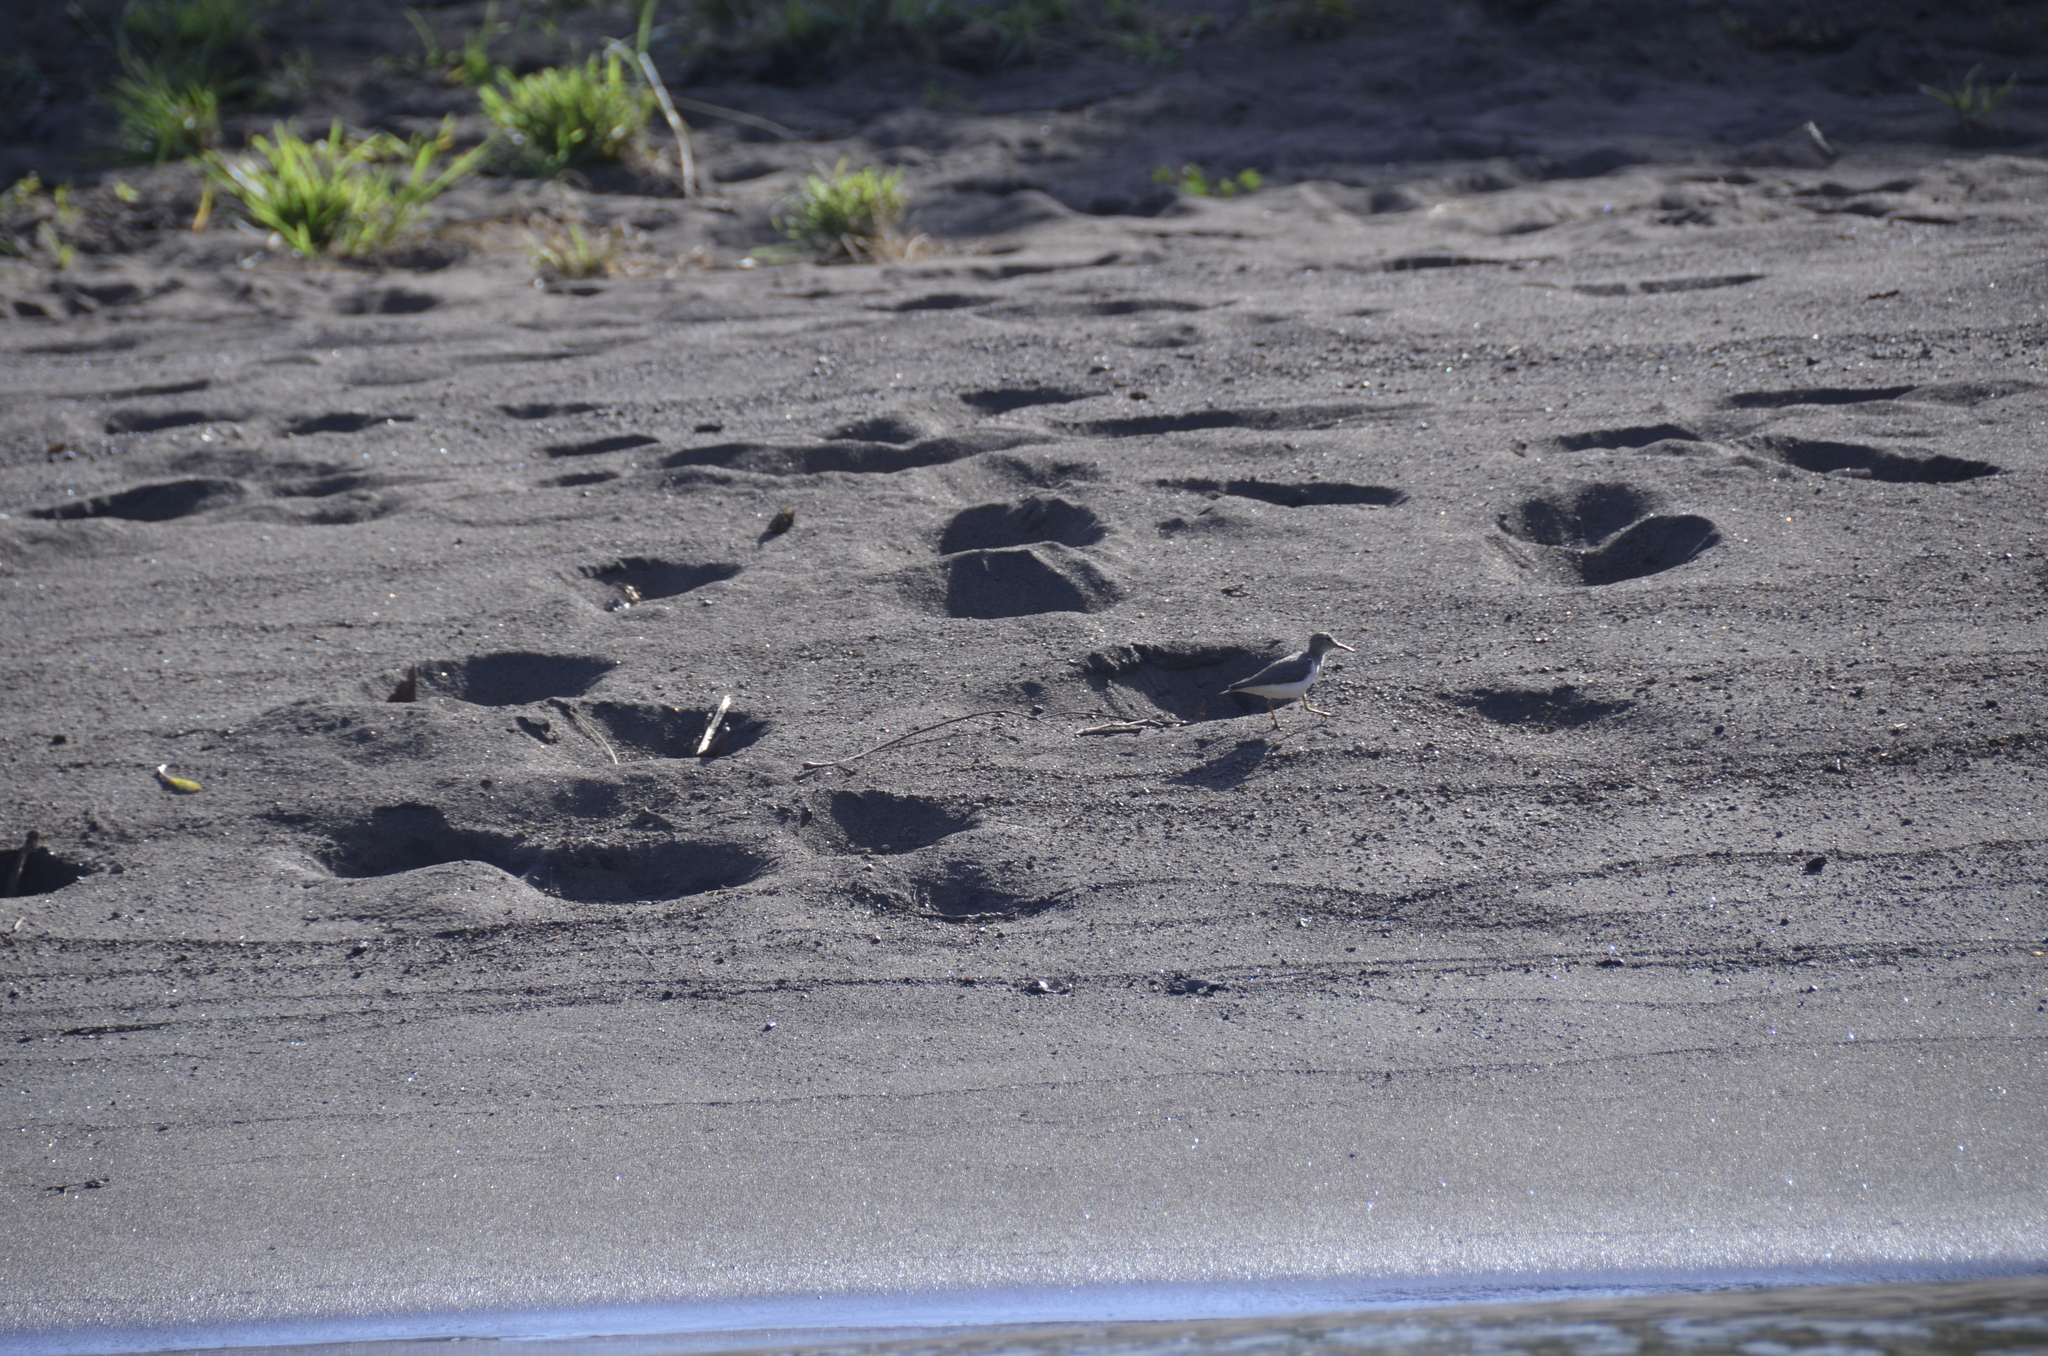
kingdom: Animalia
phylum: Chordata
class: Aves
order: Charadriiformes
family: Scolopacidae
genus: Actitis
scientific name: Actitis macularius
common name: Spotted sandpiper
